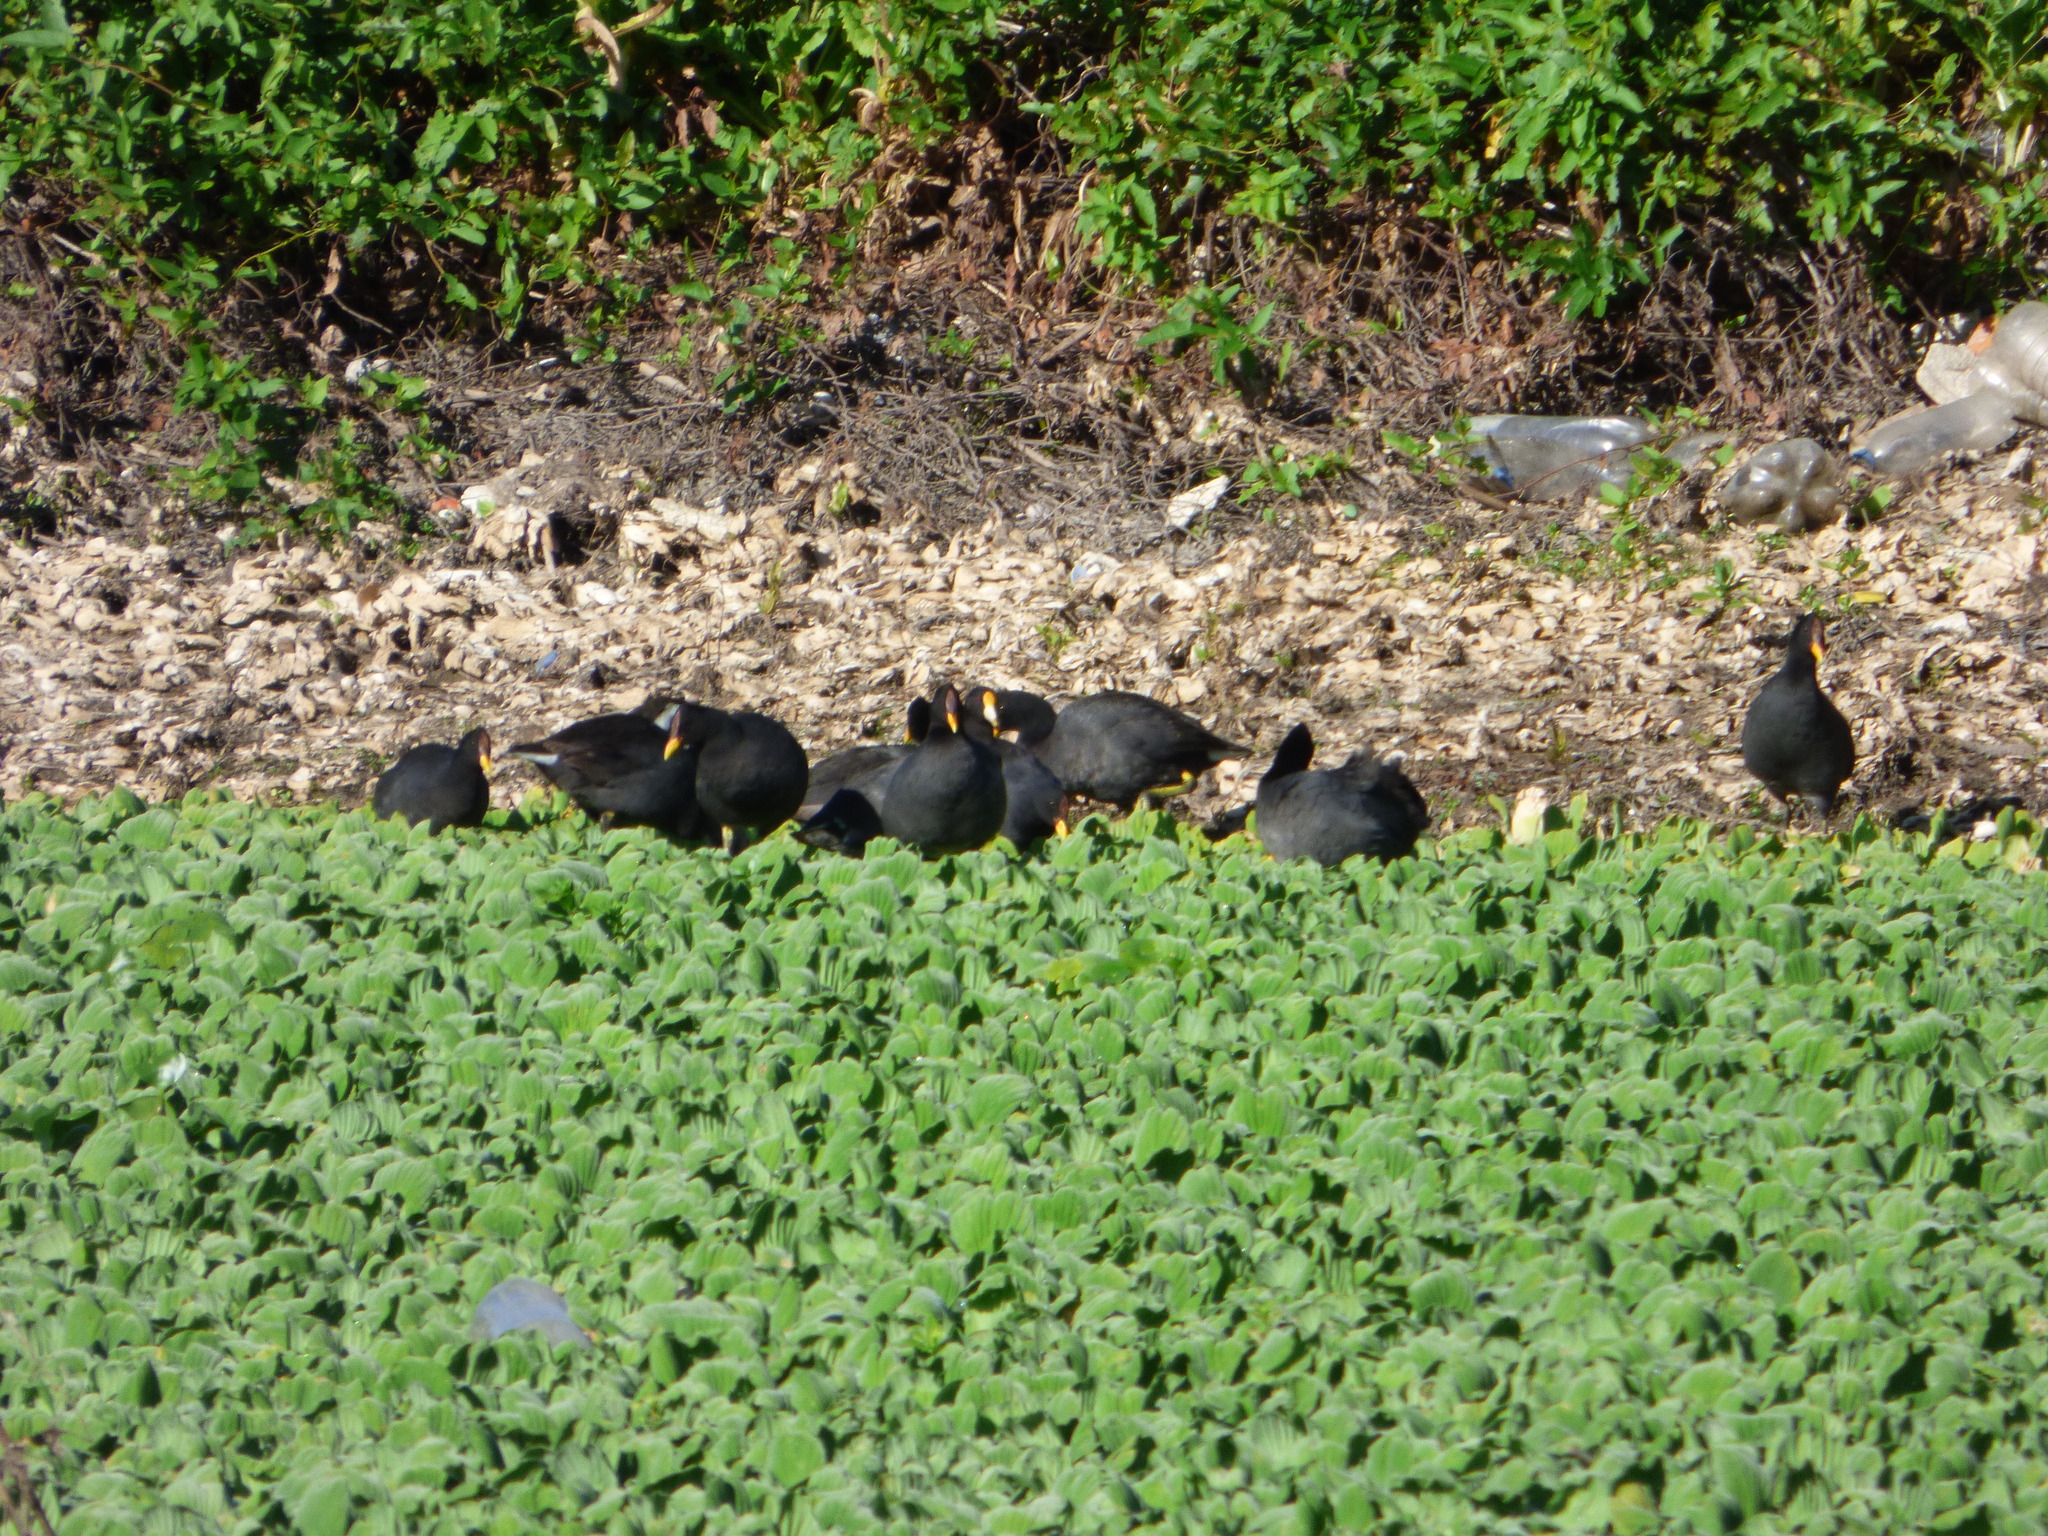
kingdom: Animalia
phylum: Chordata
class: Aves
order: Gruiformes
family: Rallidae
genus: Fulica
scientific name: Fulica leucoptera
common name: White-winged coot
